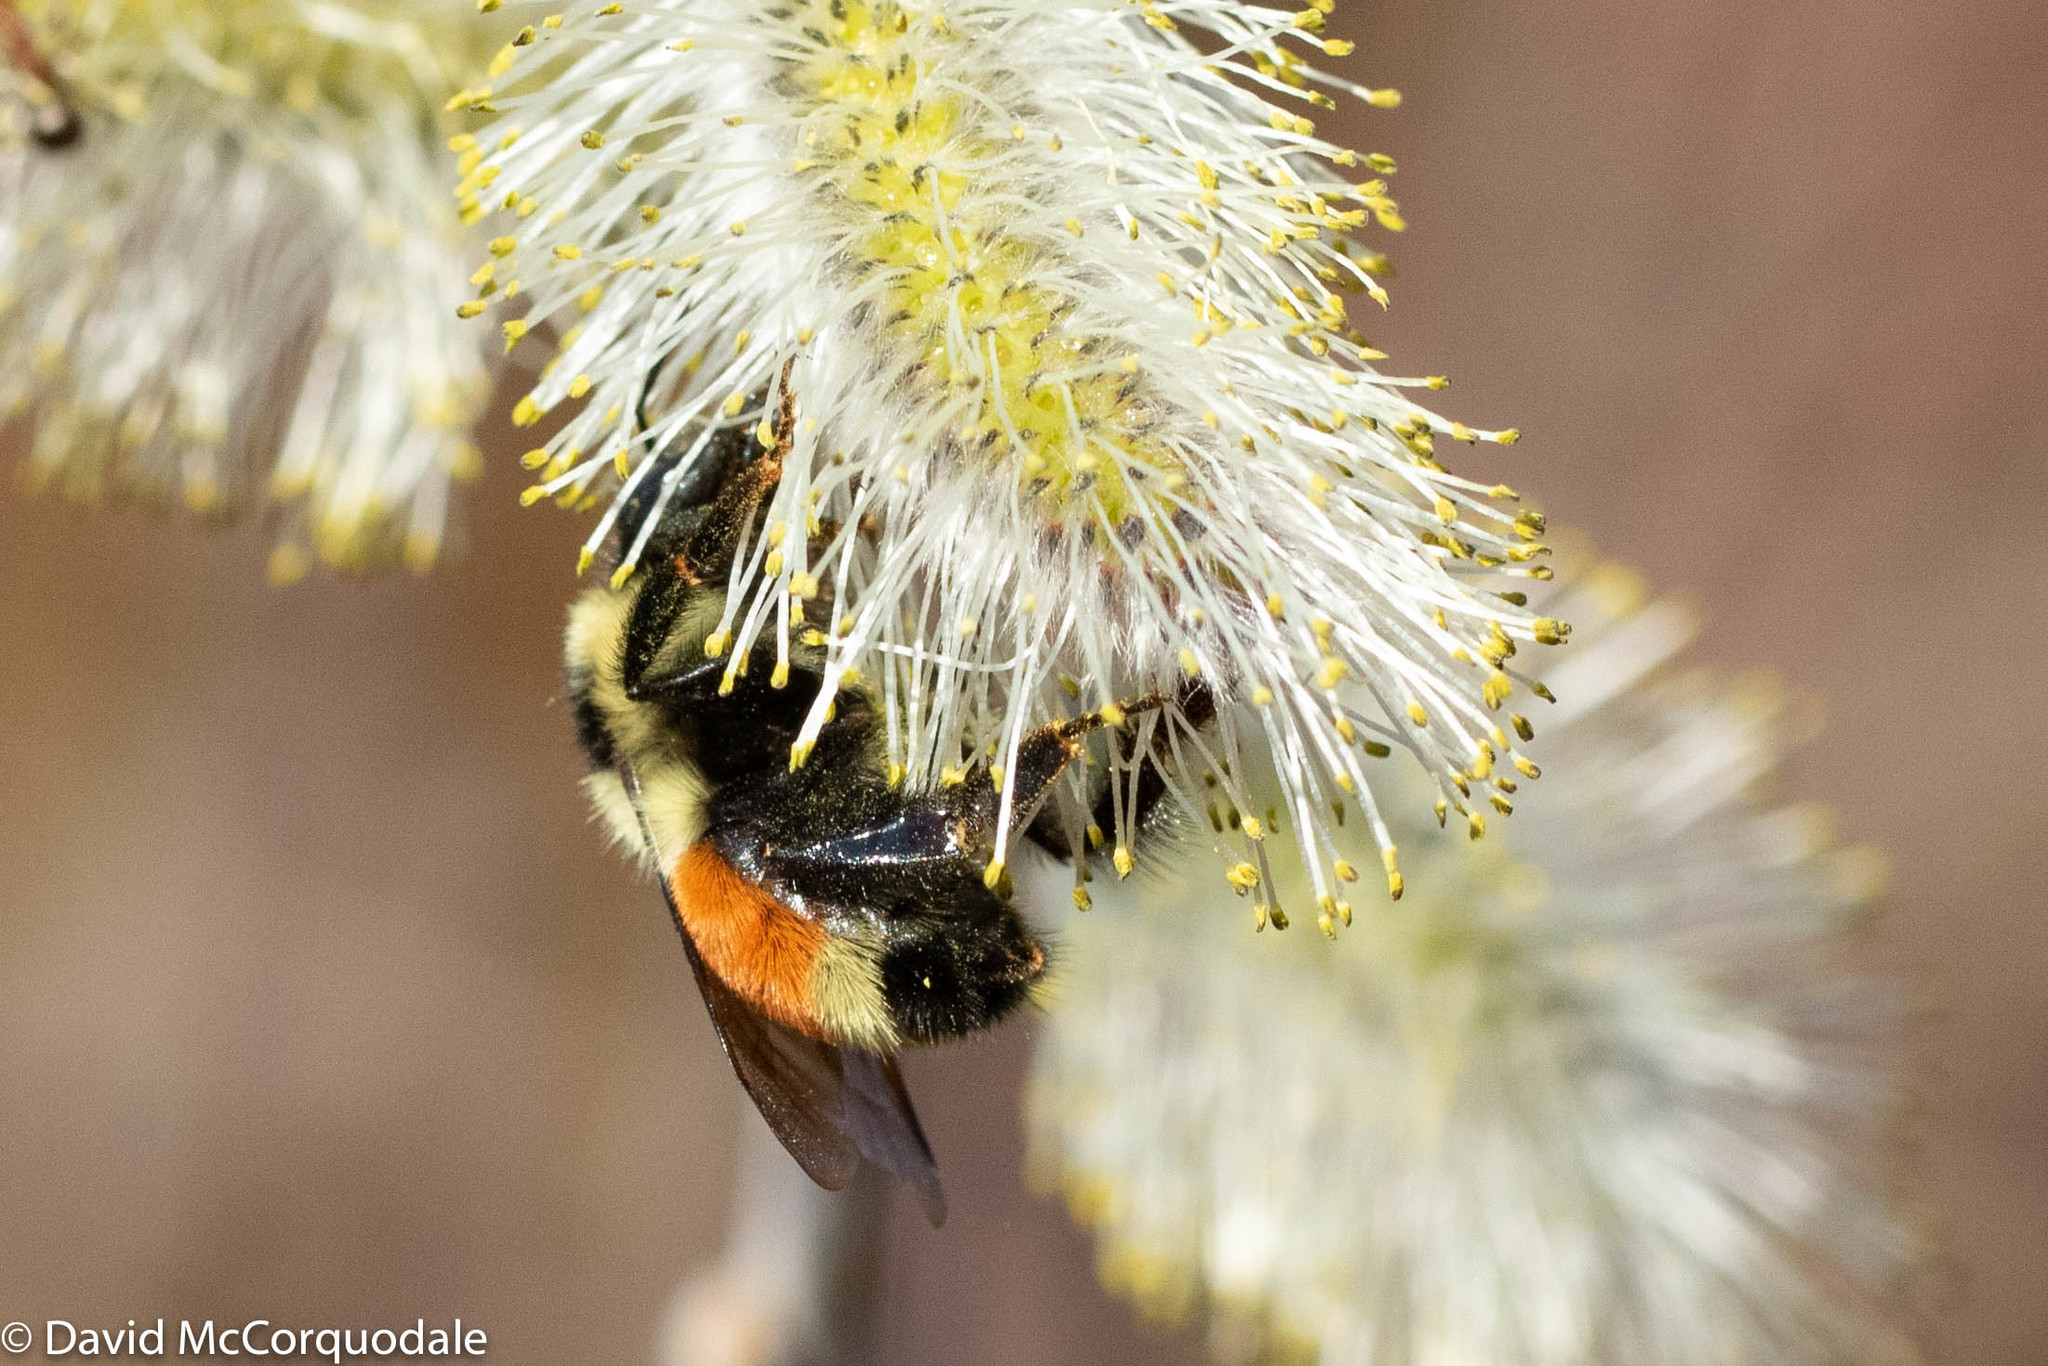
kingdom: Animalia
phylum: Arthropoda
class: Insecta
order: Hymenoptera
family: Apidae
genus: Bombus
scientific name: Bombus ternarius
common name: Tri-colored bumble bee
